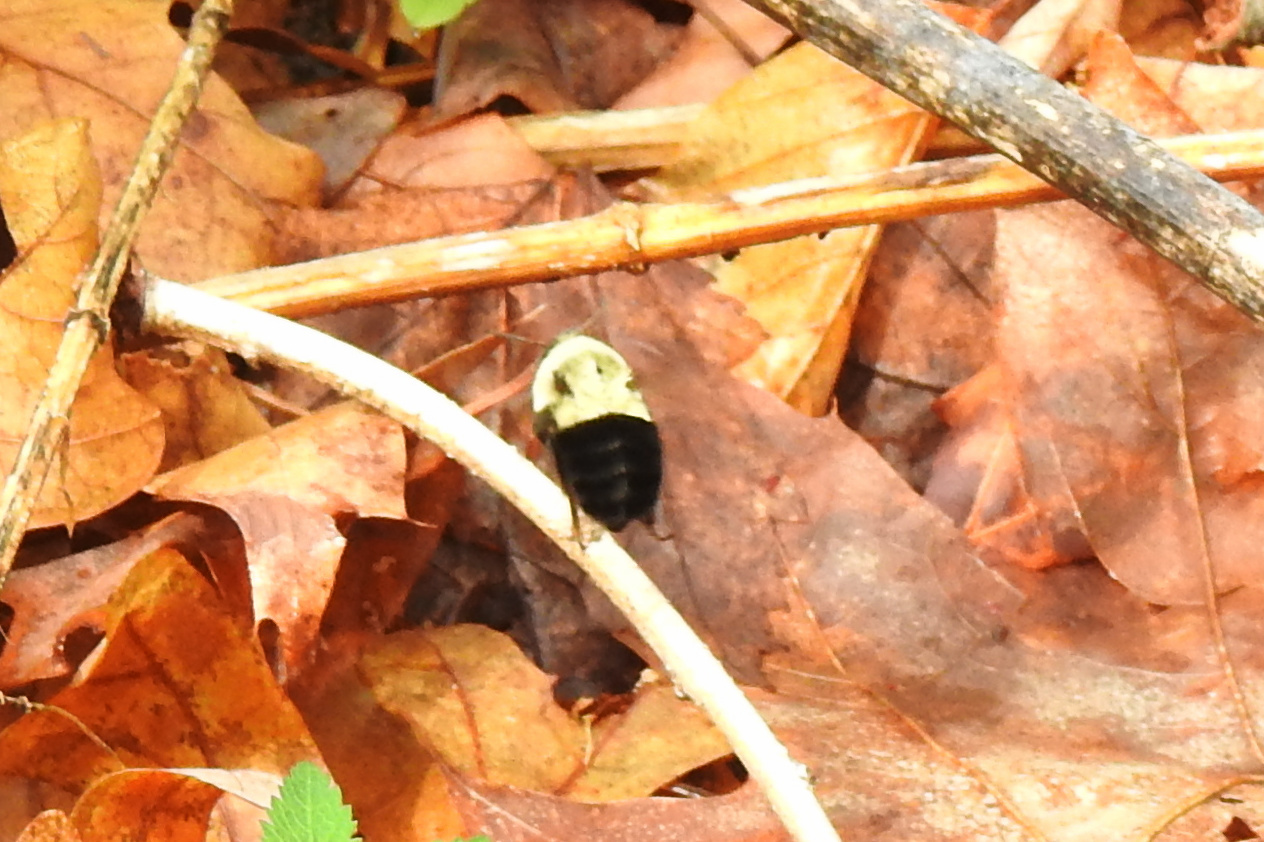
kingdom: Animalia
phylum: Arthropoda
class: Insecta
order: Hymenoptera
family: Apidae
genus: Bombus
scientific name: Bombus impatiens
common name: Common eastern bumble bee
